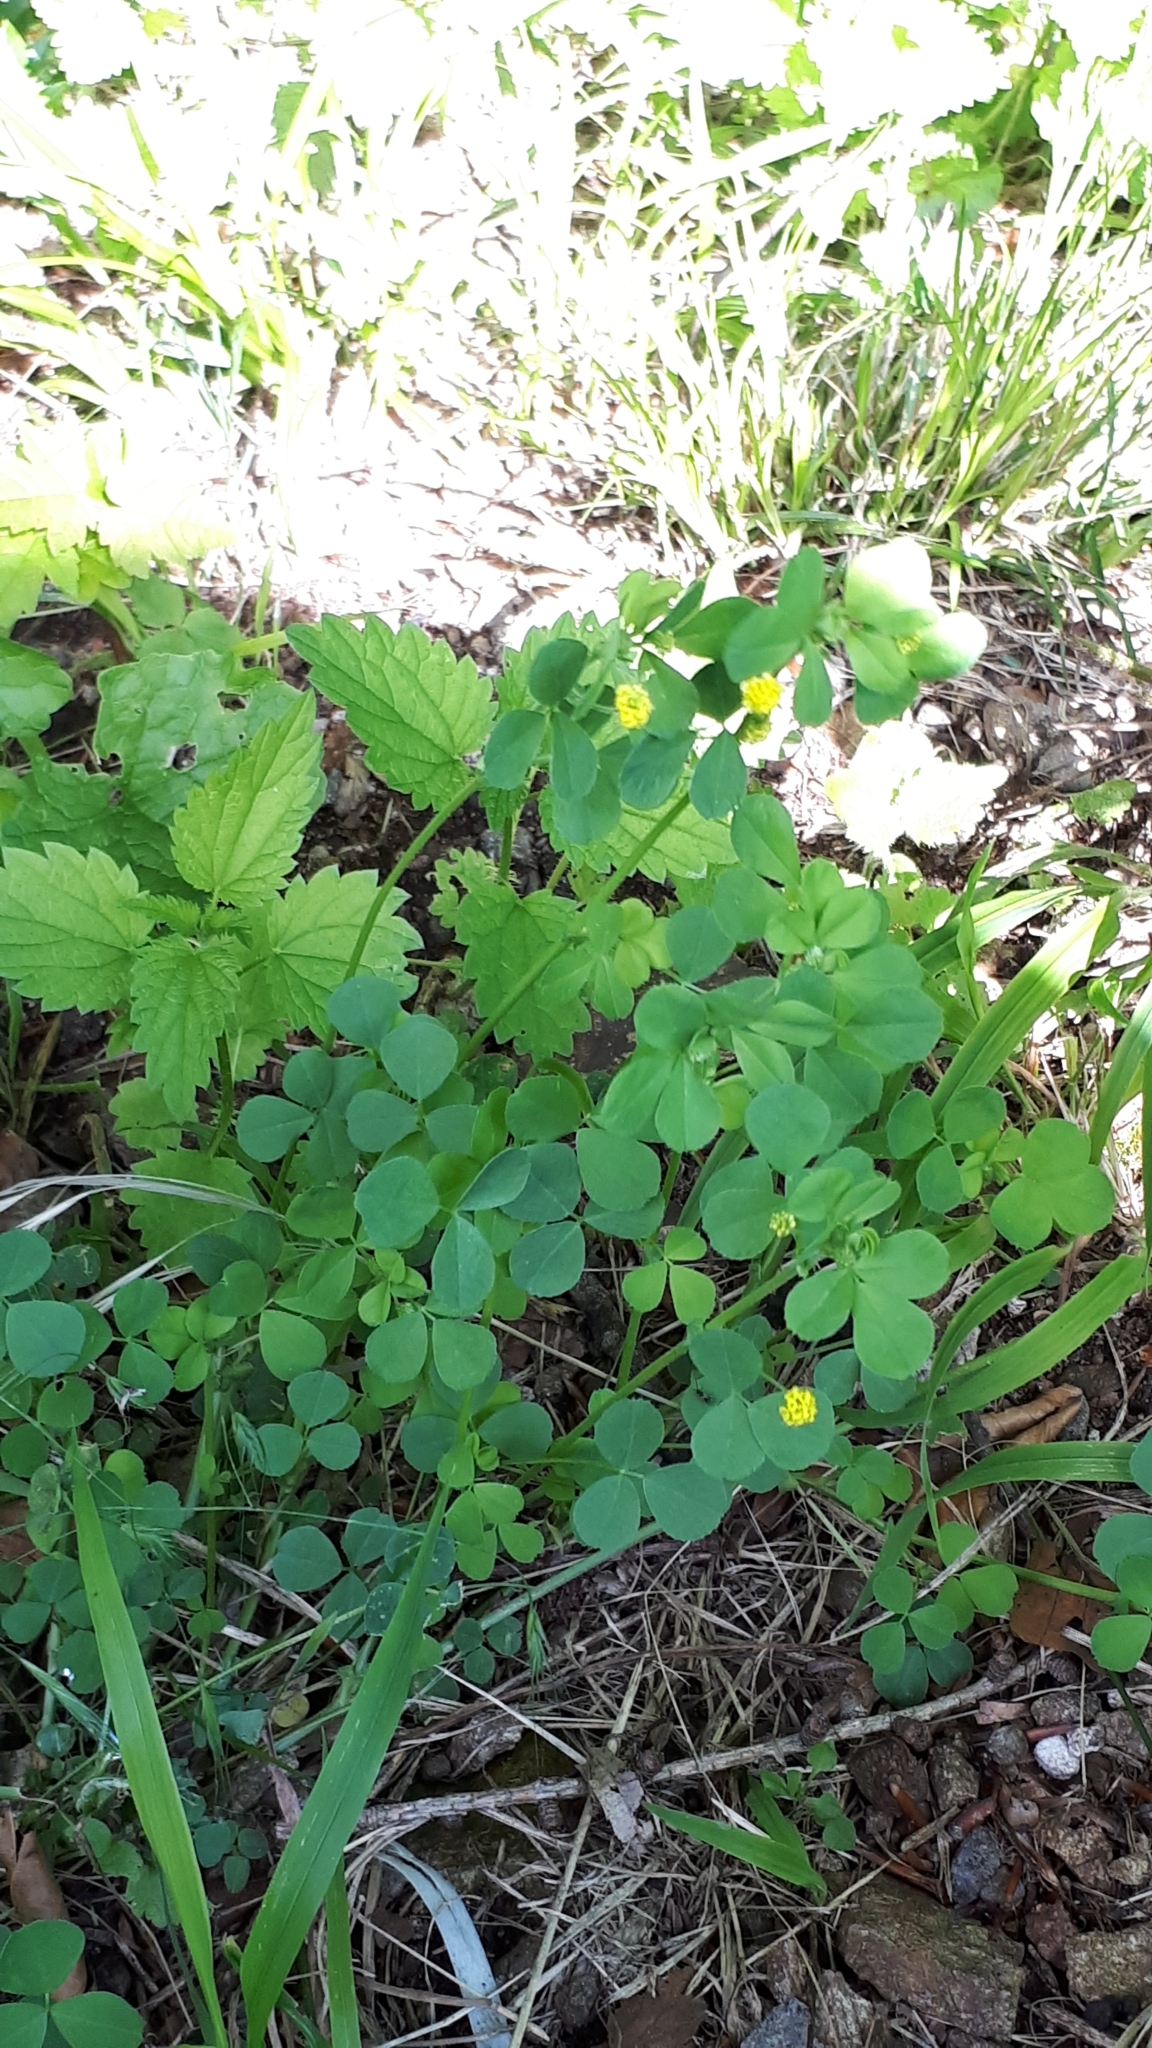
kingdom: Plantae
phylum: Tracheophyta
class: Magnoliopsida
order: Fabales
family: Fabaceae
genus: Medicago
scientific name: Medicago lupulina
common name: Black medick
